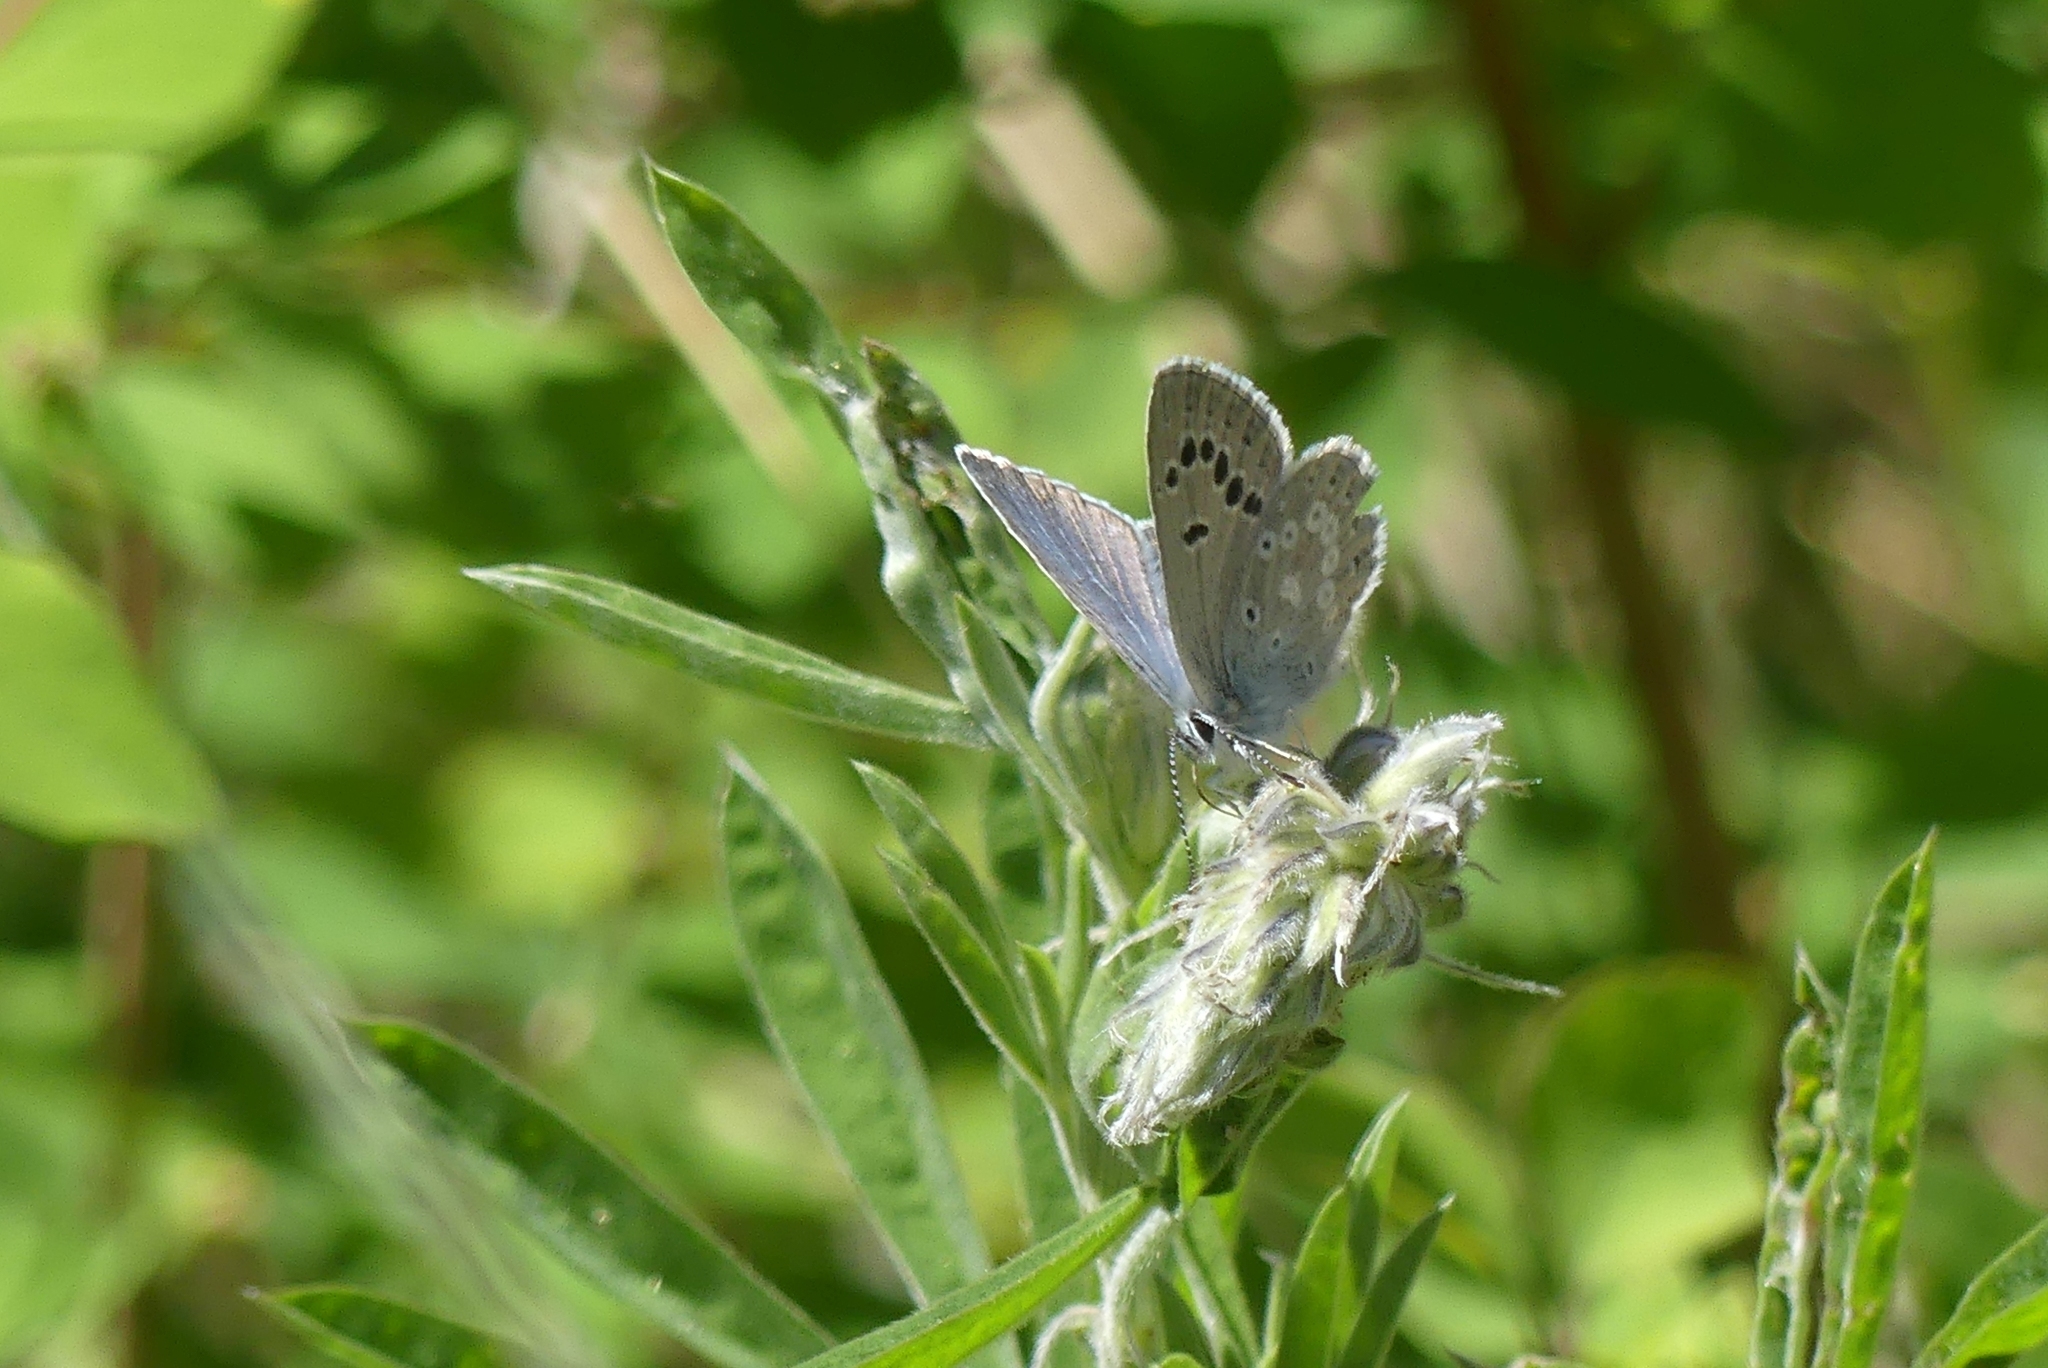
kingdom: Animalia
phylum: Arthropoda
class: Insecta
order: Lepidoptera
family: Lycaenidae
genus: Icaricia
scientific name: Icaricia icarioides
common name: Boisduval's blue
